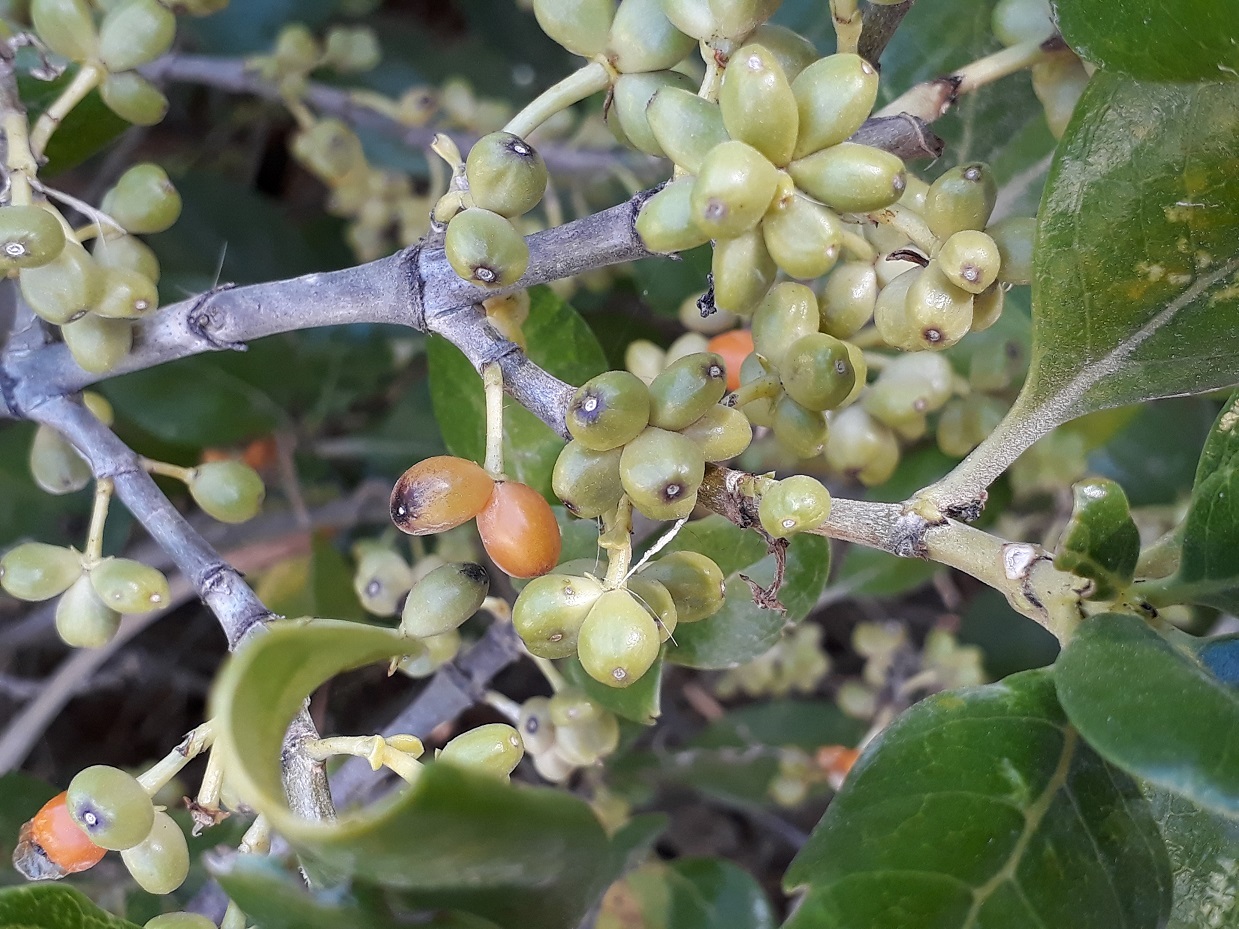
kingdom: Plantae
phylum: Tracheophyta
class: Magnoliopsida
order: Gentianales
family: Rubiaceae
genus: Coprosma
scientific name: Coprosma repens
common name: Tree bedstraw
